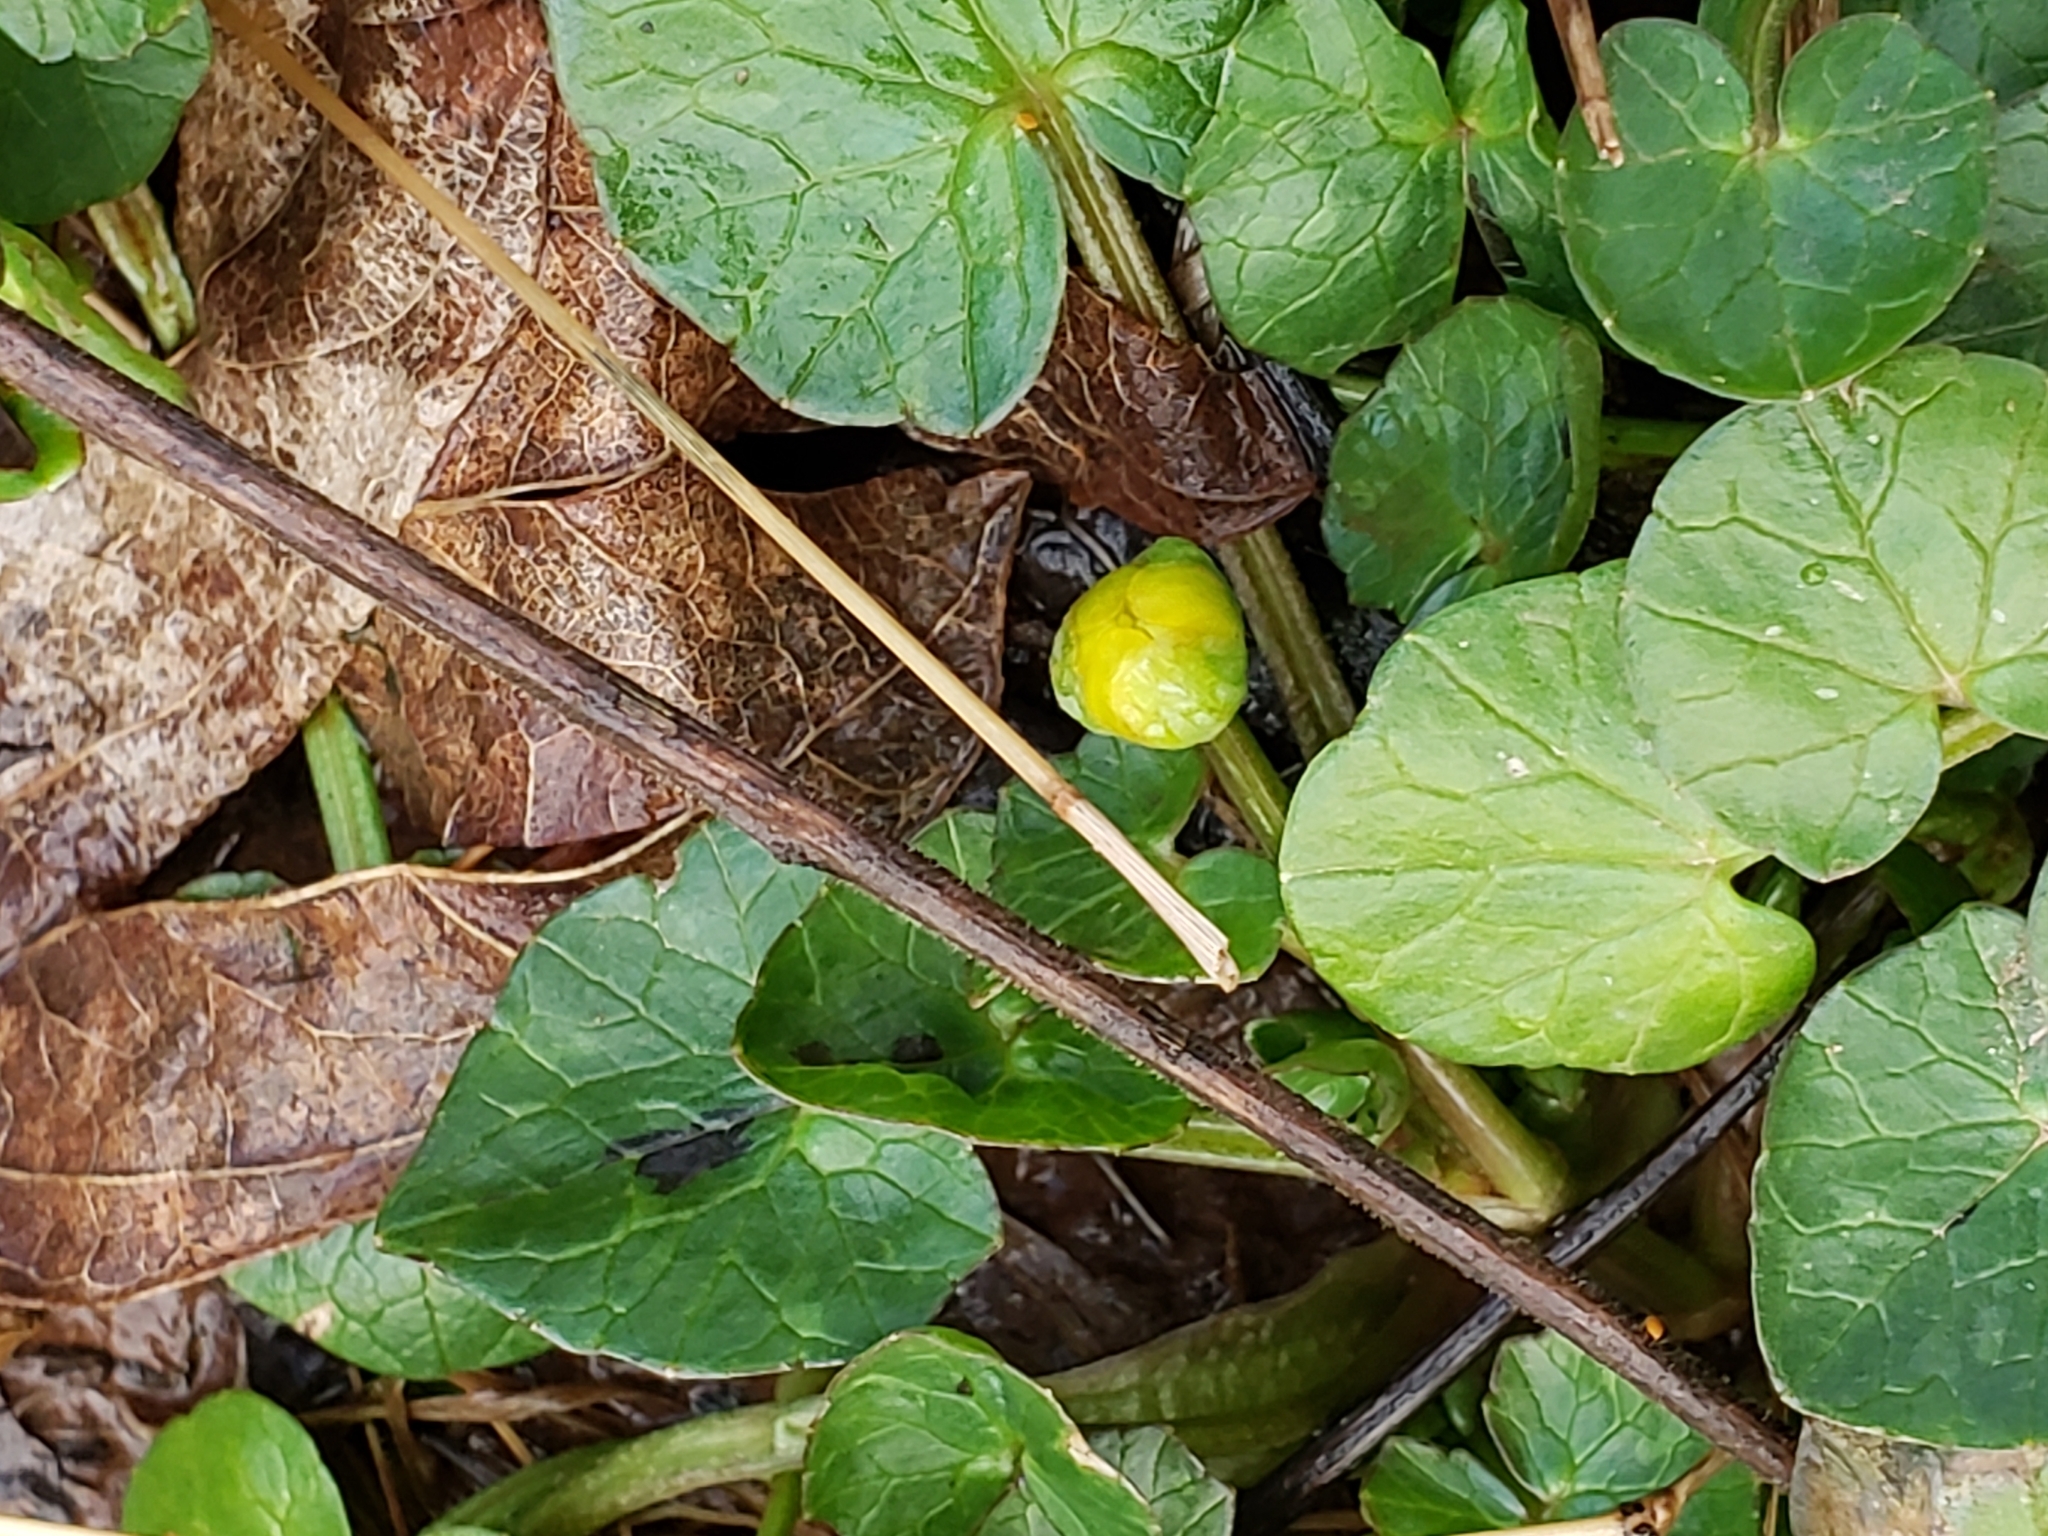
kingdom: Plantae
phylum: Tracheophyta
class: Magnoliopsida
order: Ranunculales
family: Ranunculaceae
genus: Ficaria
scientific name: Ficaria verna
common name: Lesser celandine
